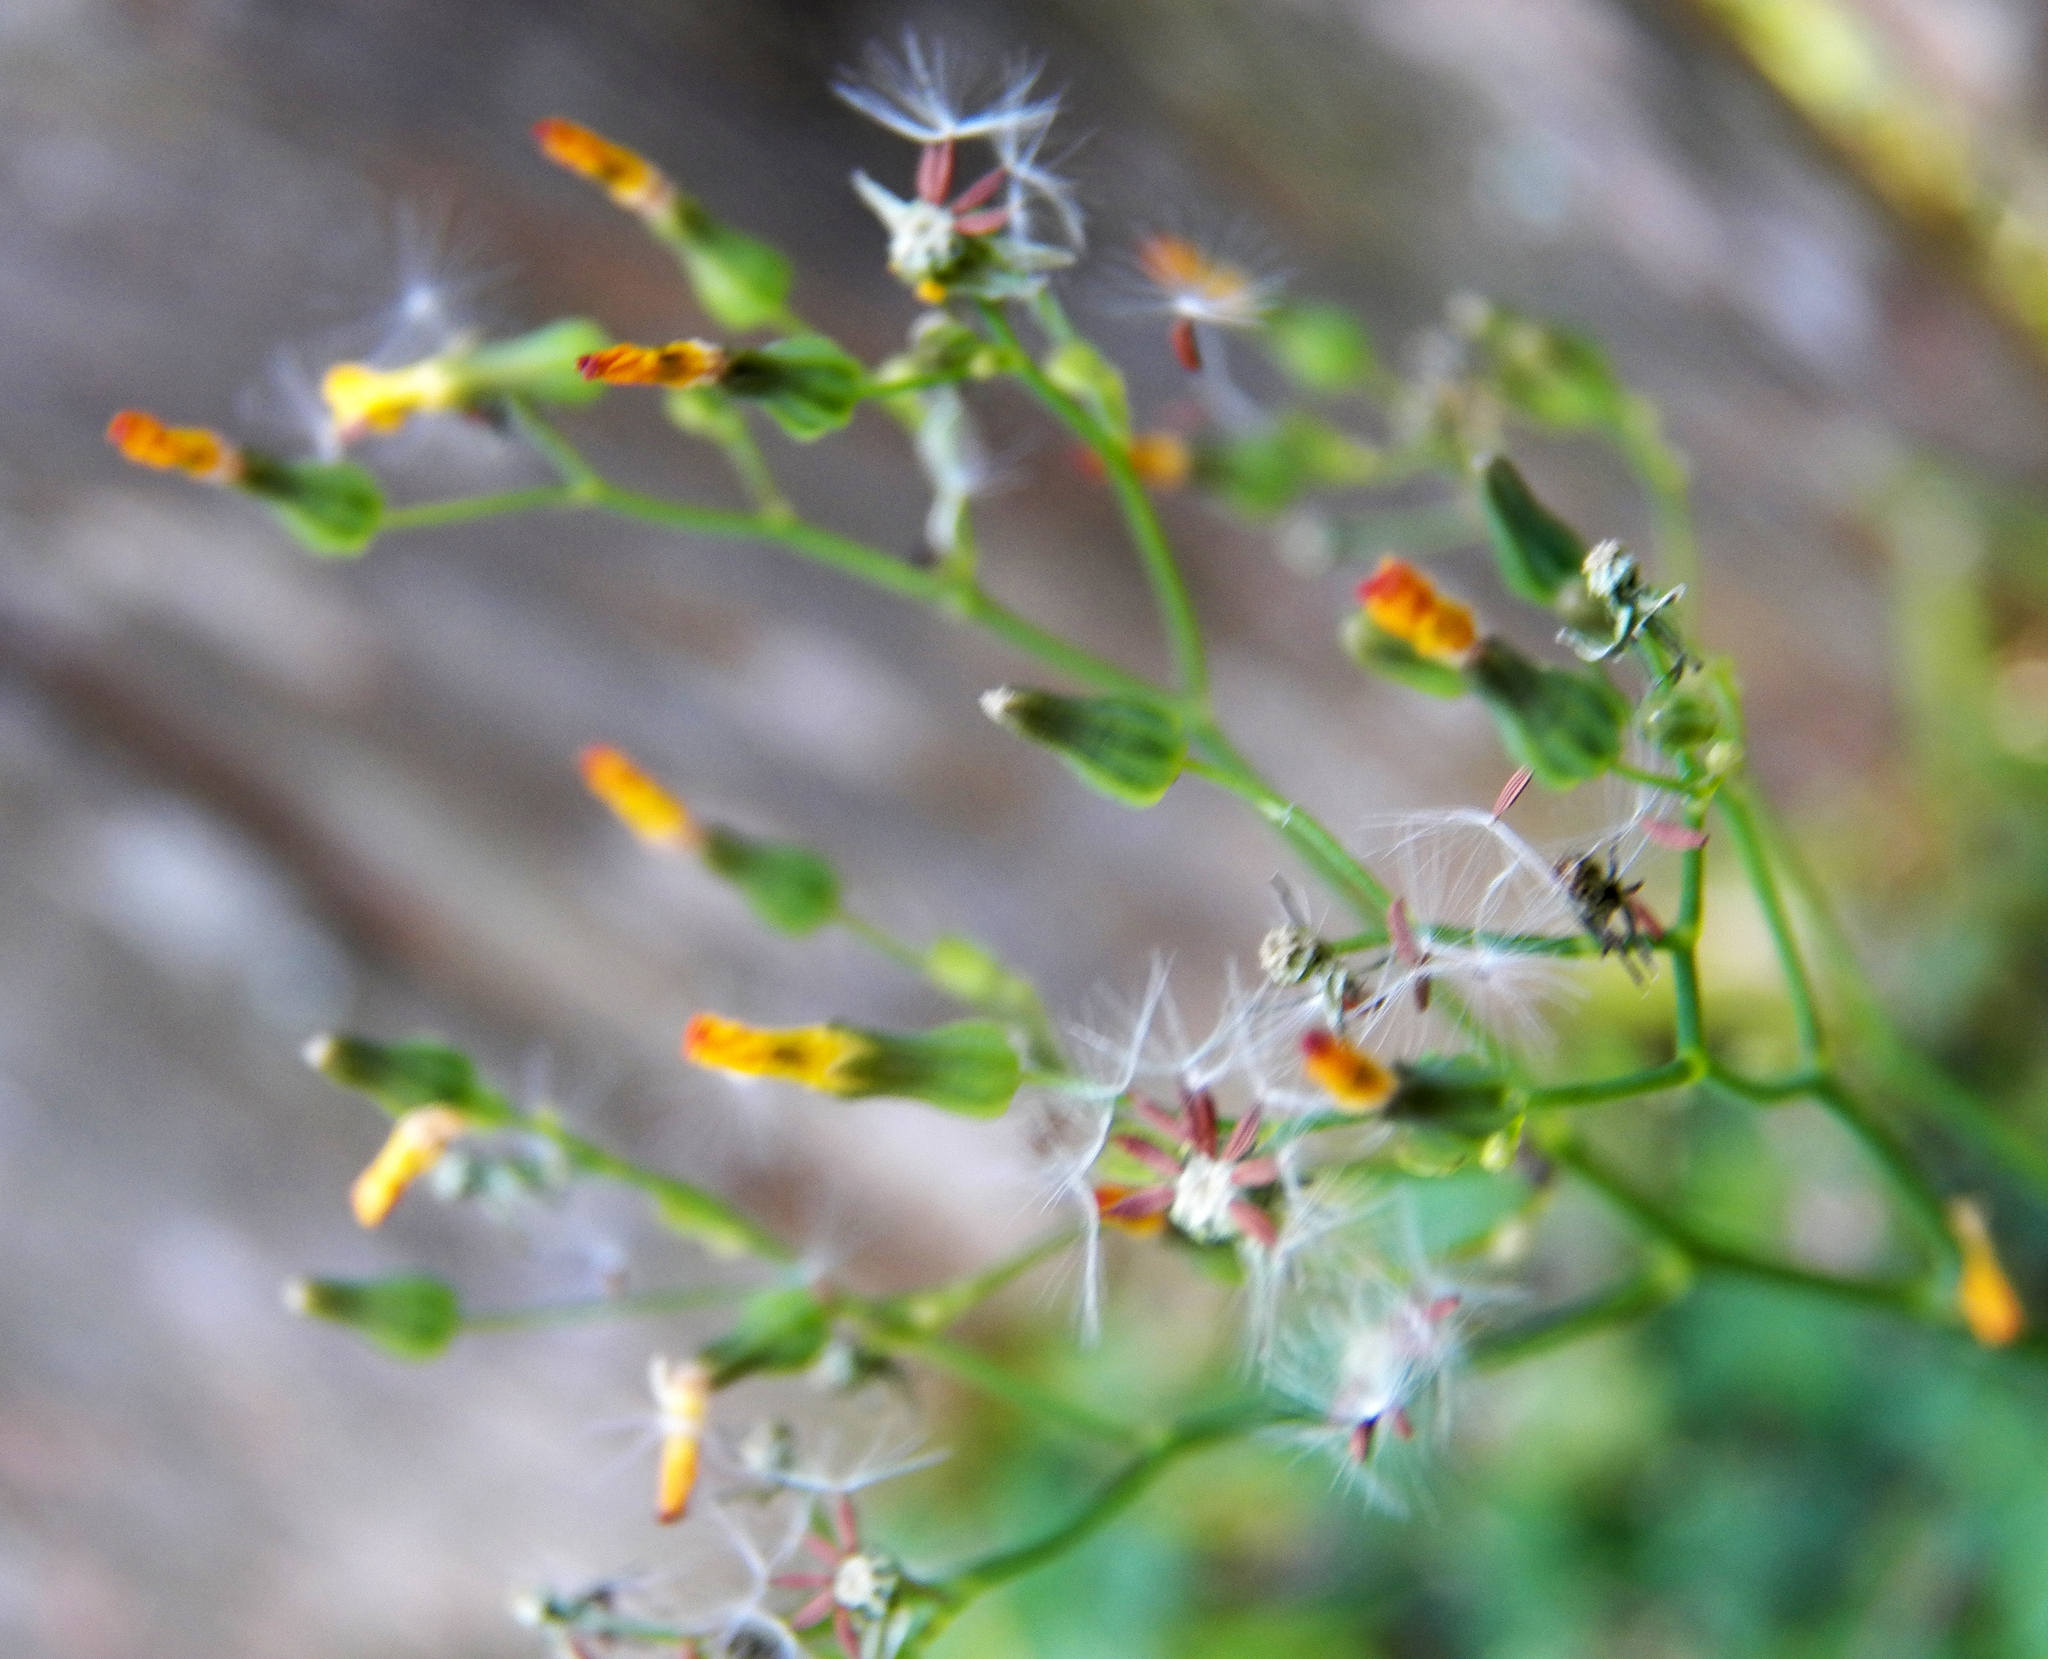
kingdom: Plantae
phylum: Tracheophyta
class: Magnoliopsida
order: Asterales
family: Asteraceae
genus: Youngia
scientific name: Youngia japonica
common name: Oriental false hawksbeard
